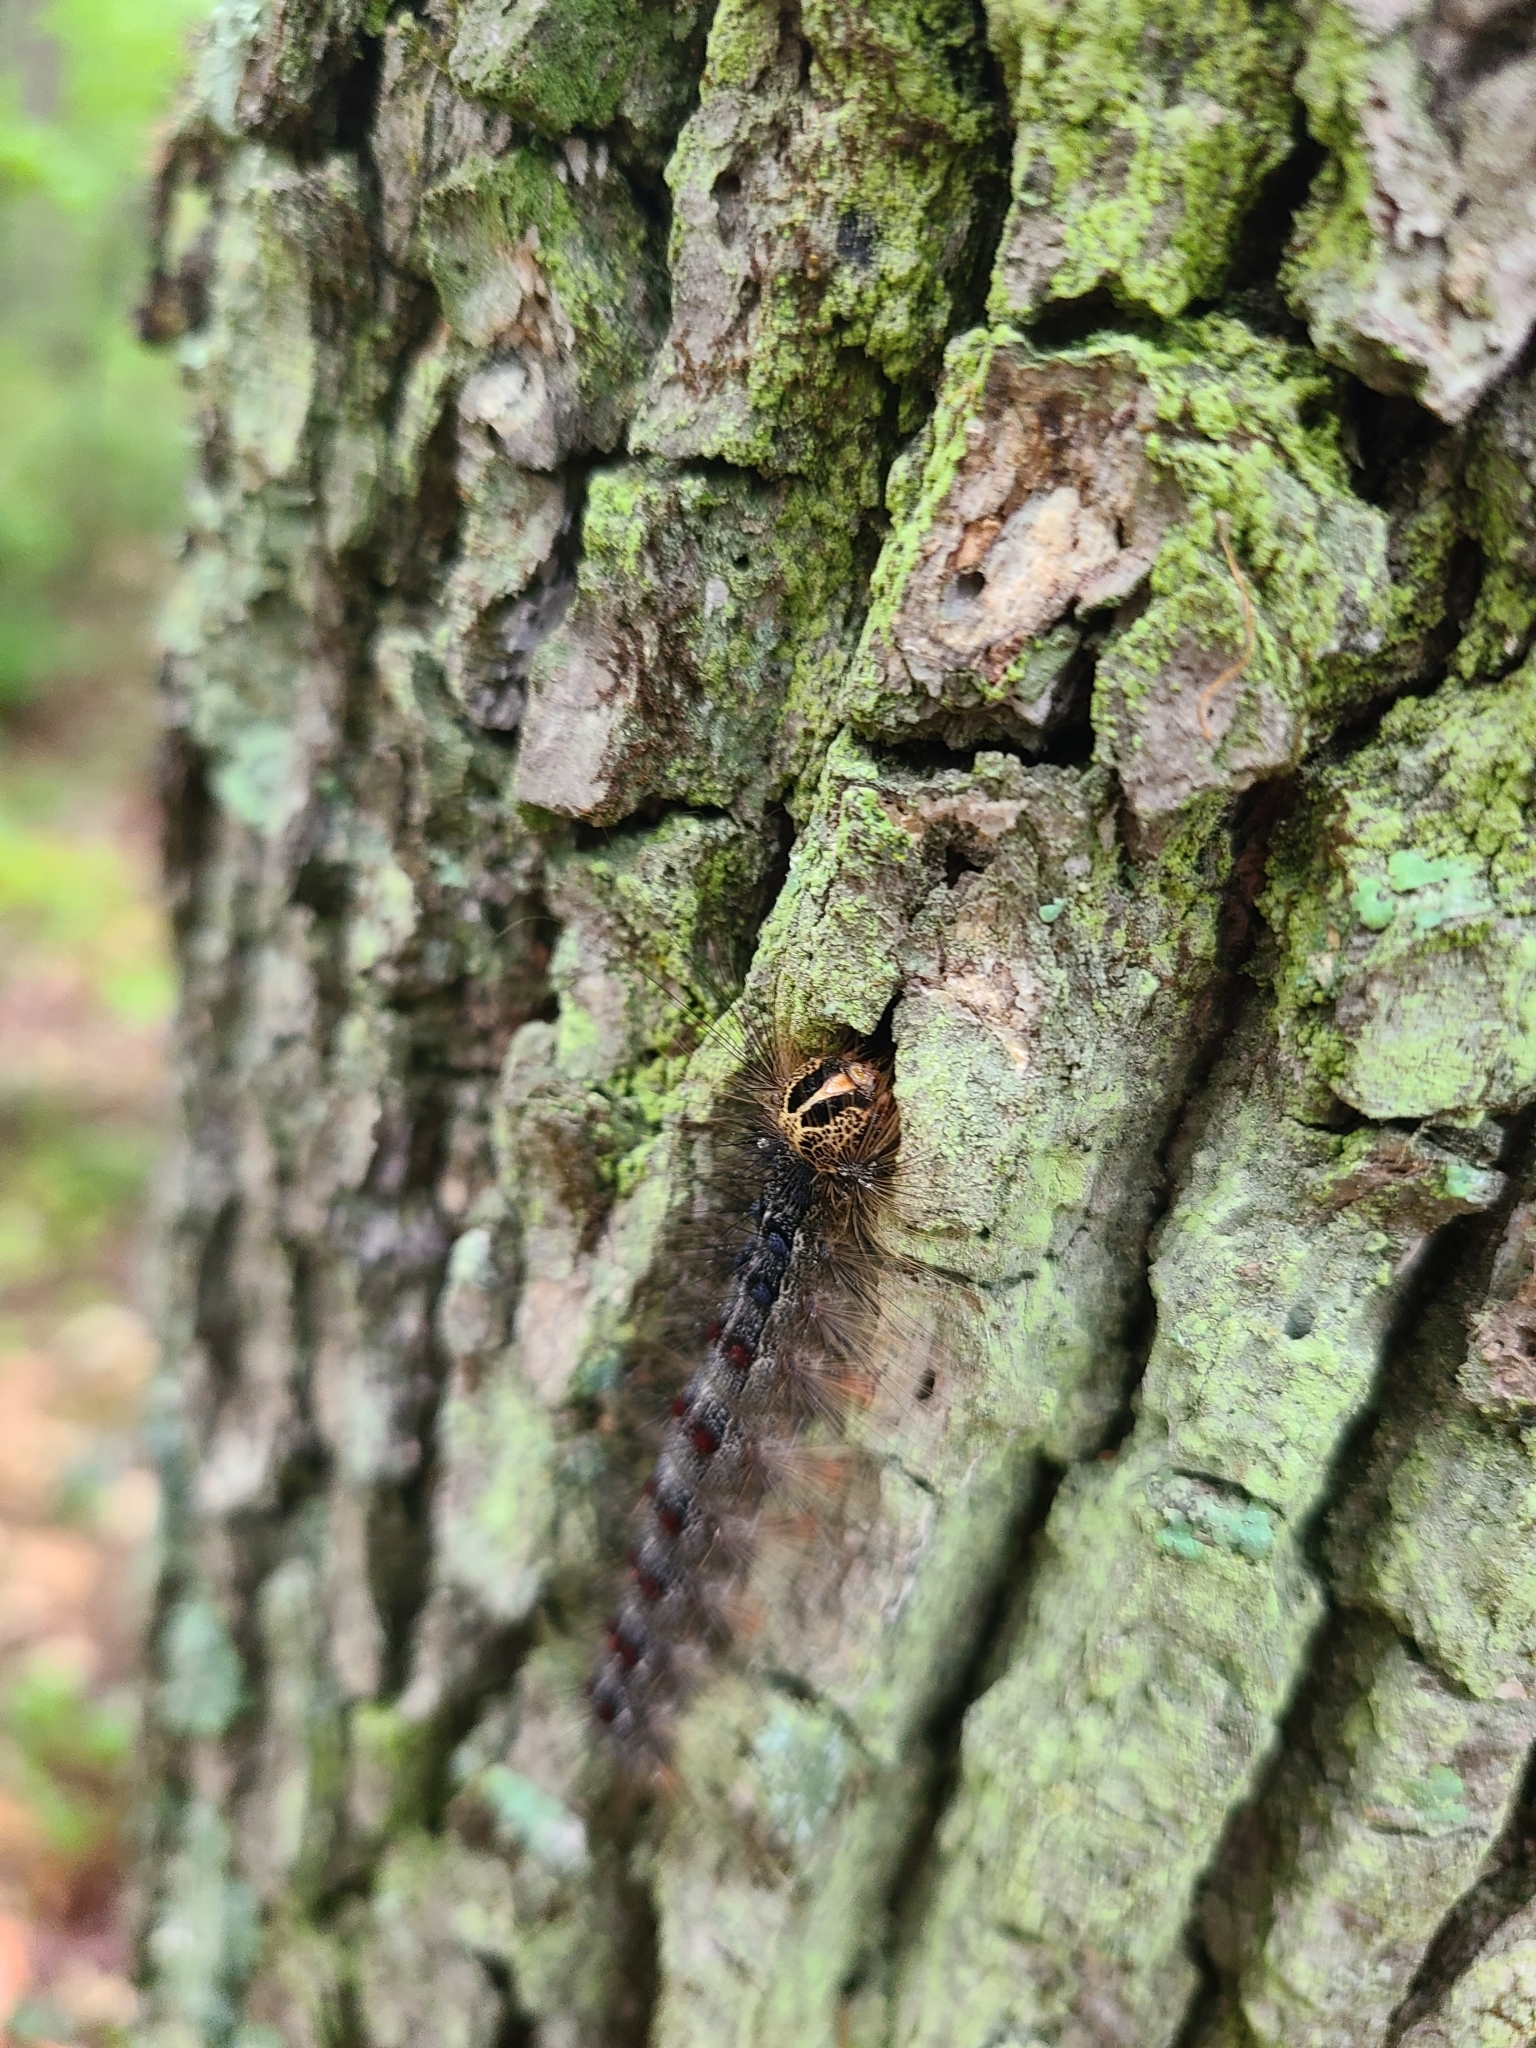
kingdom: Animalia
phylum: Arthropoda
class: Insecta
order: Lepidoptera
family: Erebidae
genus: Lymantria
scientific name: Lymantria dispar
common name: Gypsy moth
